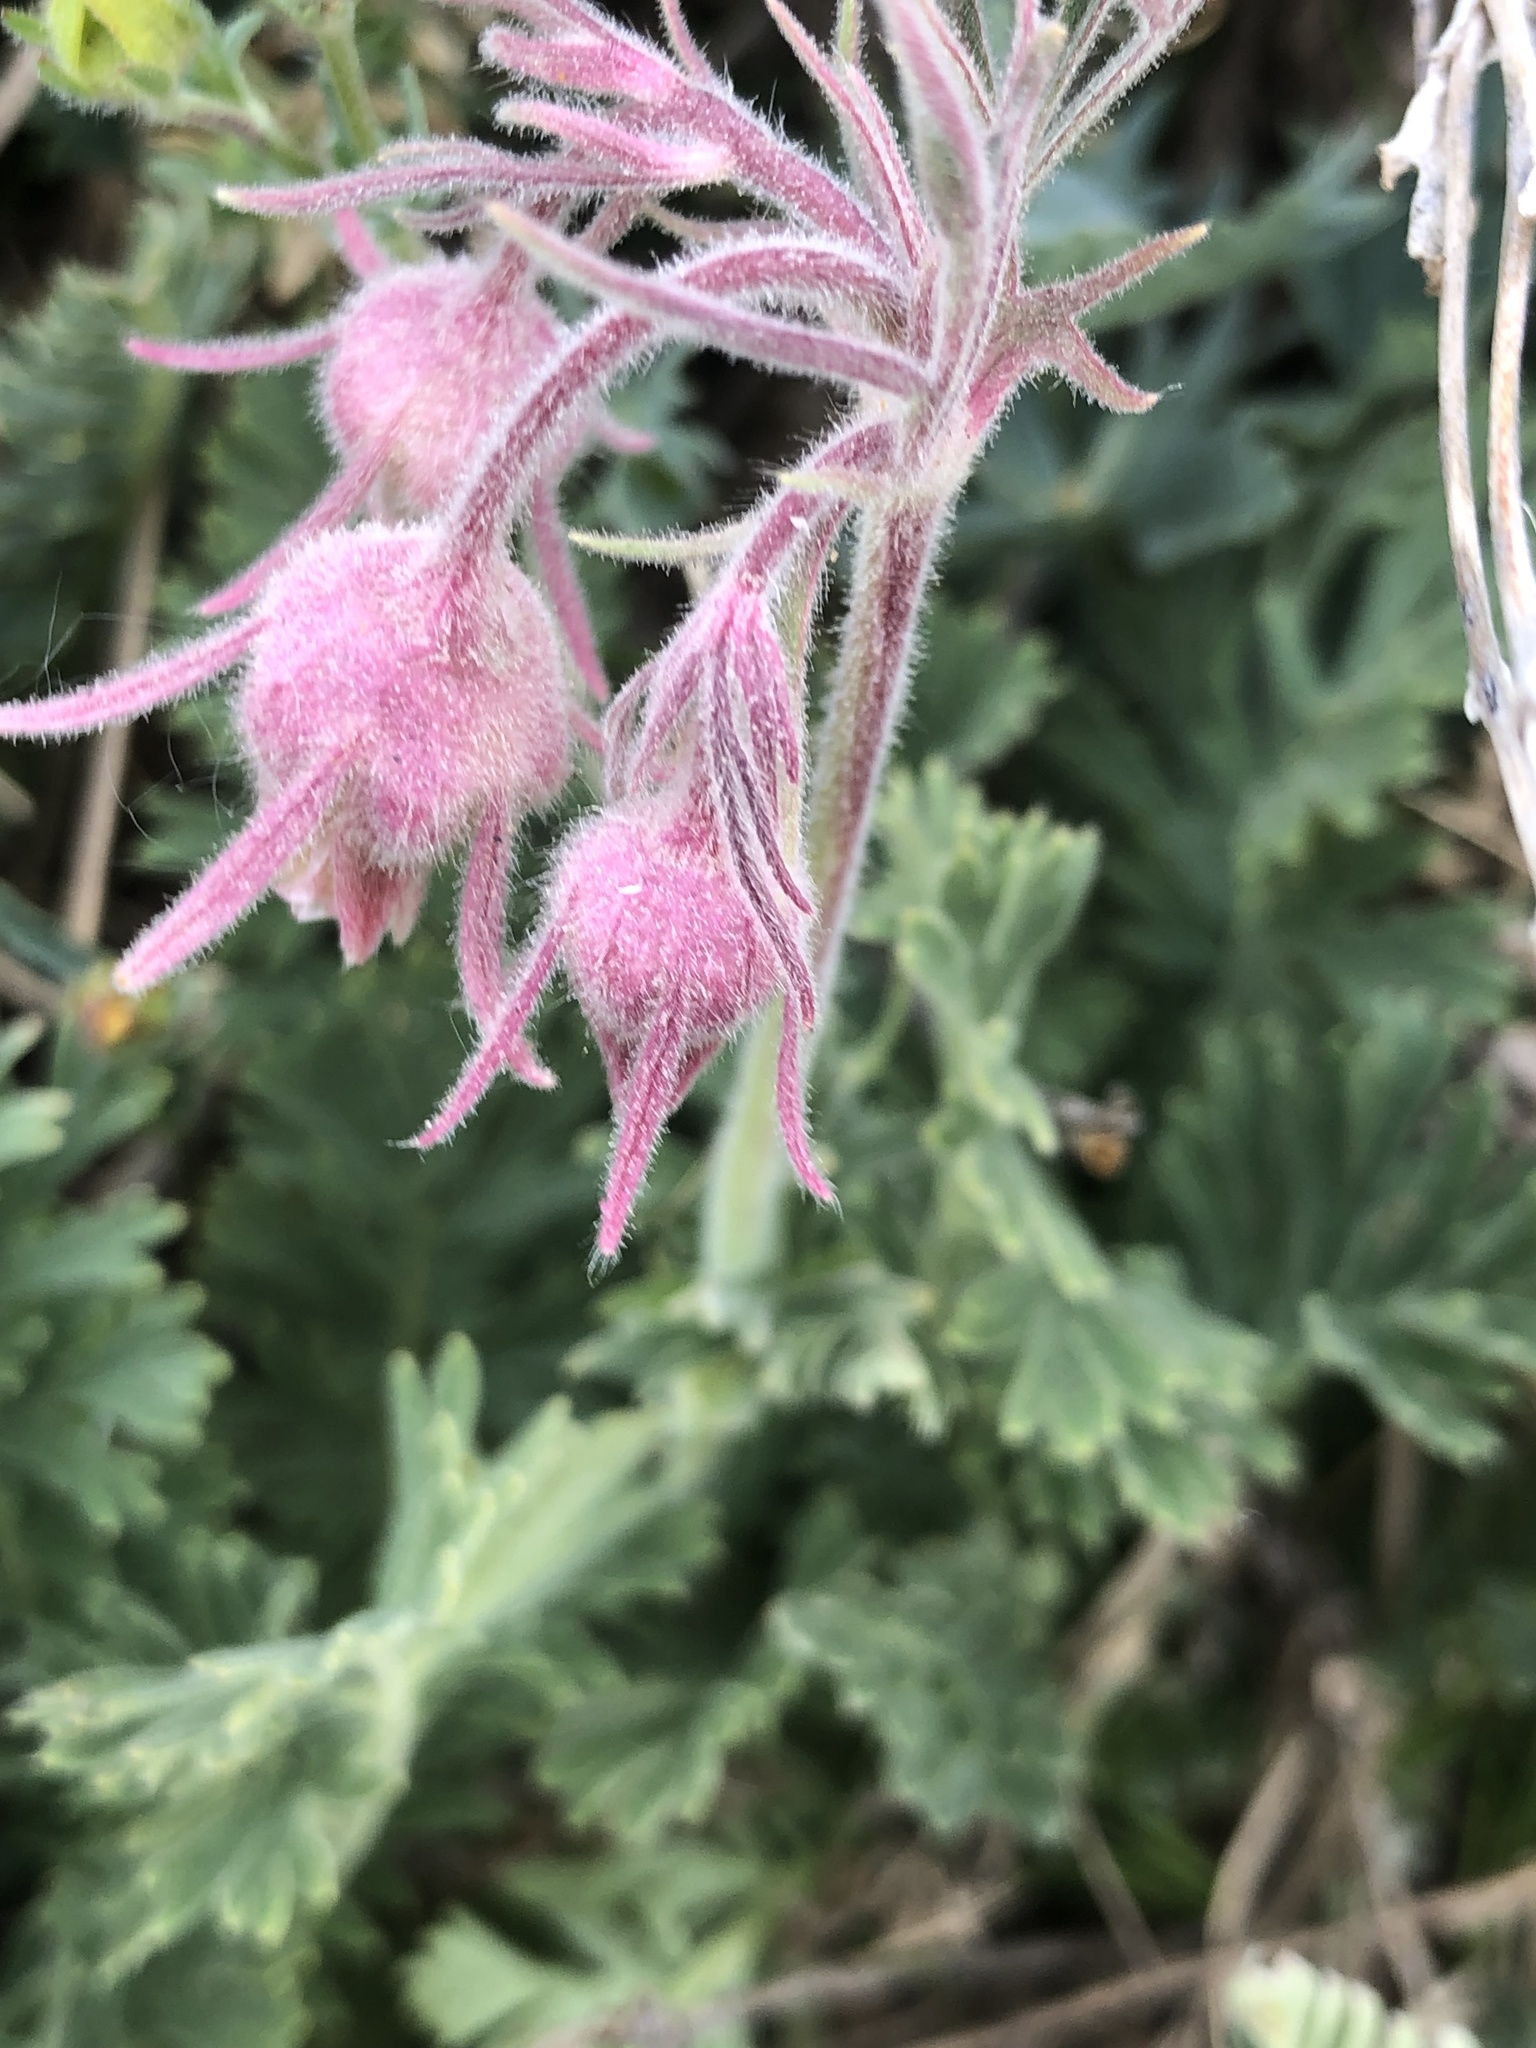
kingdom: Plantae
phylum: Tracheophyta
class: Magnoliopsida
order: Rosales
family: Rosaceae
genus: Geum
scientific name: Geum triflorum
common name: Old man's whiskers
